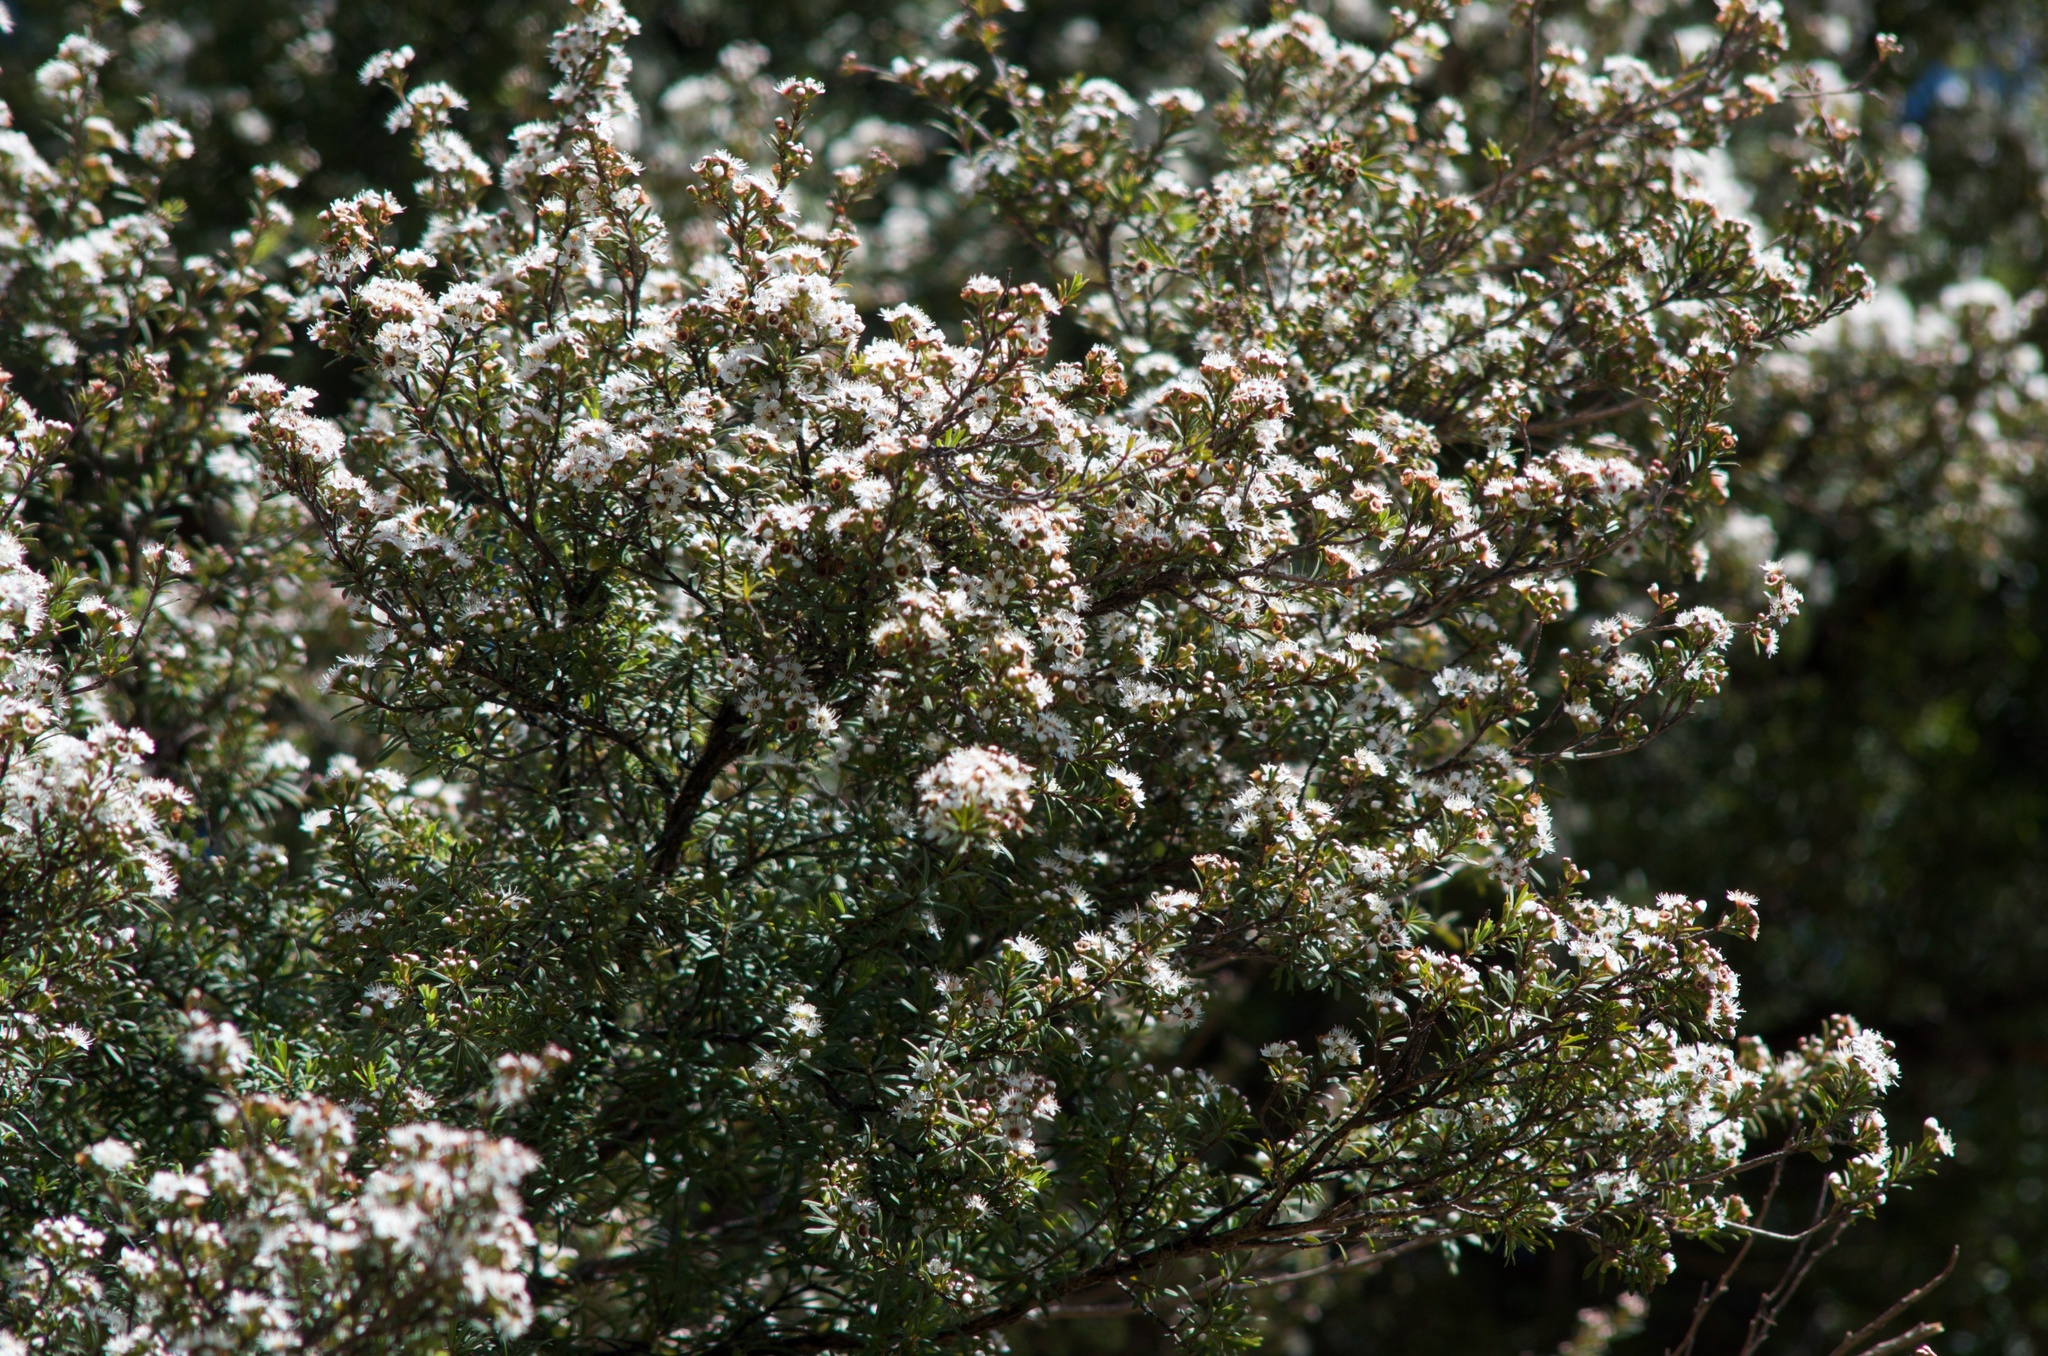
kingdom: Plantae
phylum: Tracheophyta
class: Magnoliopsida
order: Myrtales
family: Myrtaceae
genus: Kunzea
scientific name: Kunzea robusta
